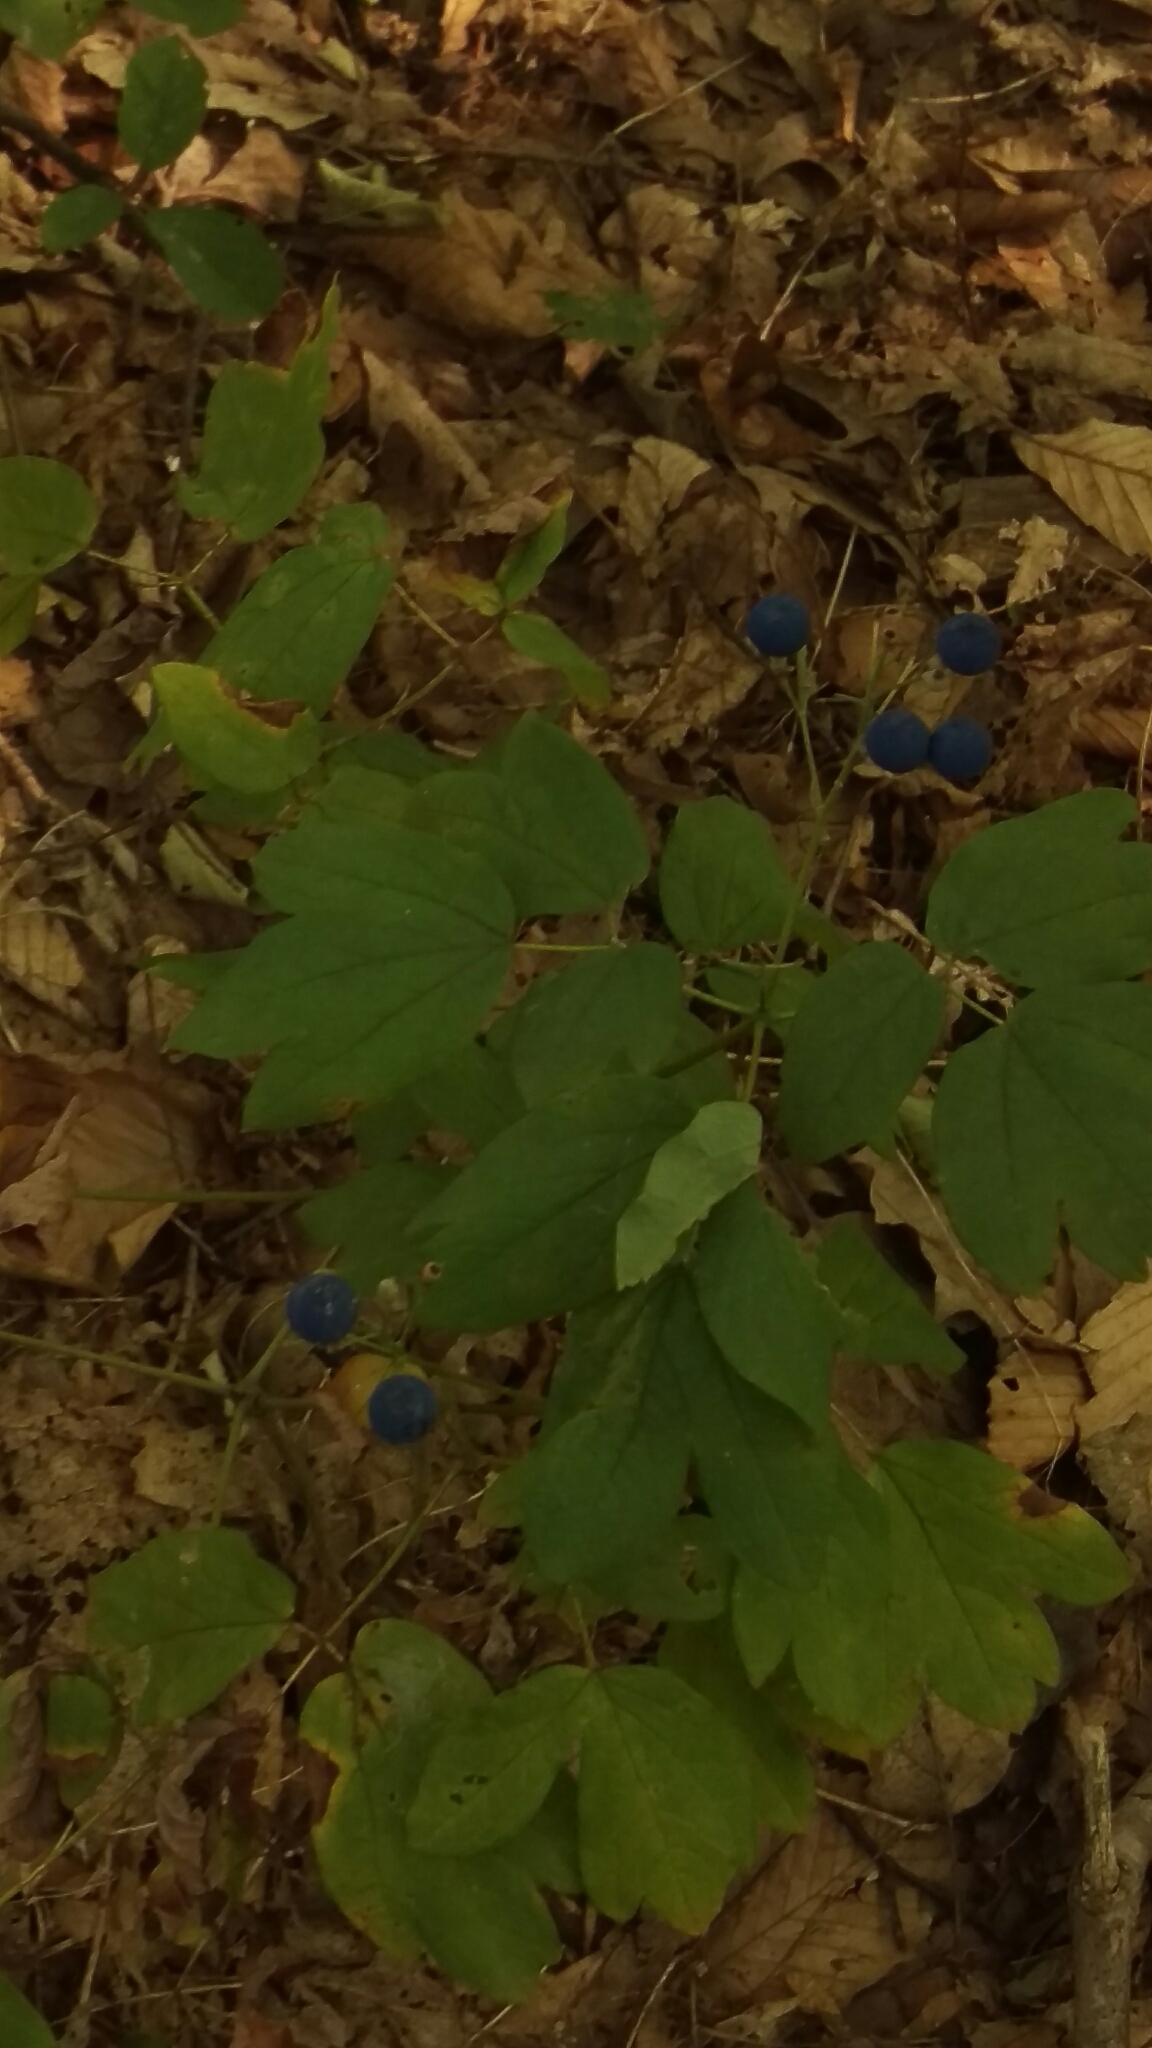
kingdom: Plantae
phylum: Tracheophyta
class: Magnoliopsida
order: Ranunculales
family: Berberidaceae
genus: Caulophyllum
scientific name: Caulophyllum thalictroides
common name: Blue cohosh
